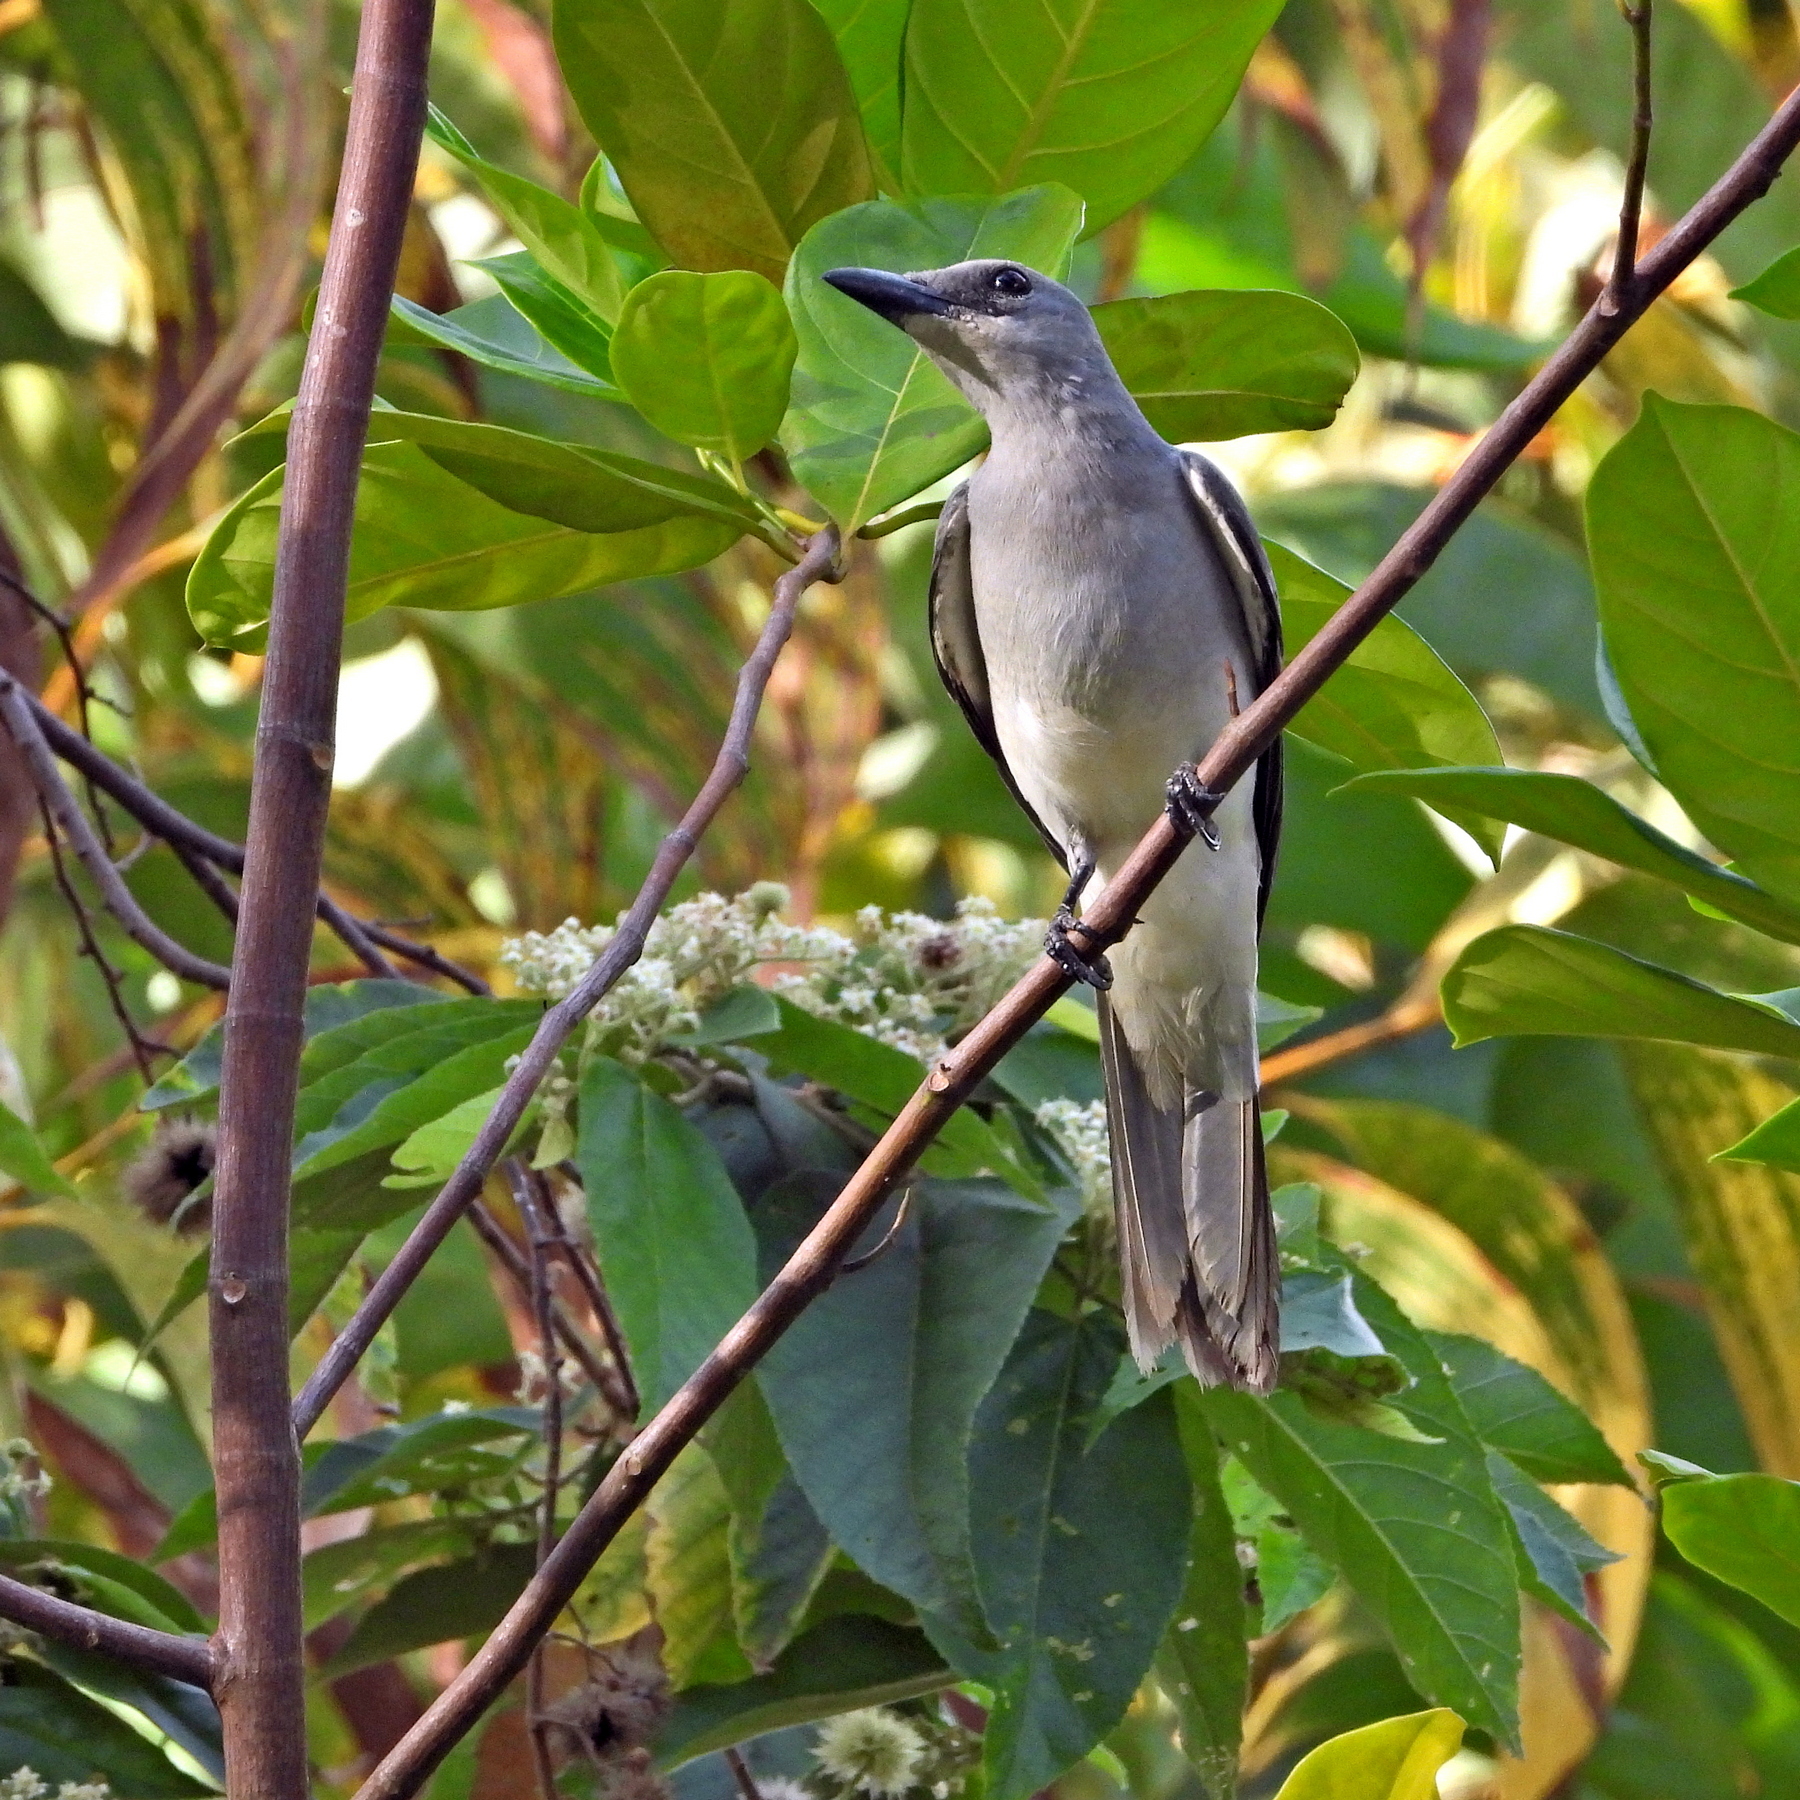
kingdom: Animalia
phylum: Chordata
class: Aves
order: Passeriformes
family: Campephagidae
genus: Coracina
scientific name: Coracina ceramensis
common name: Pale cicadabird
